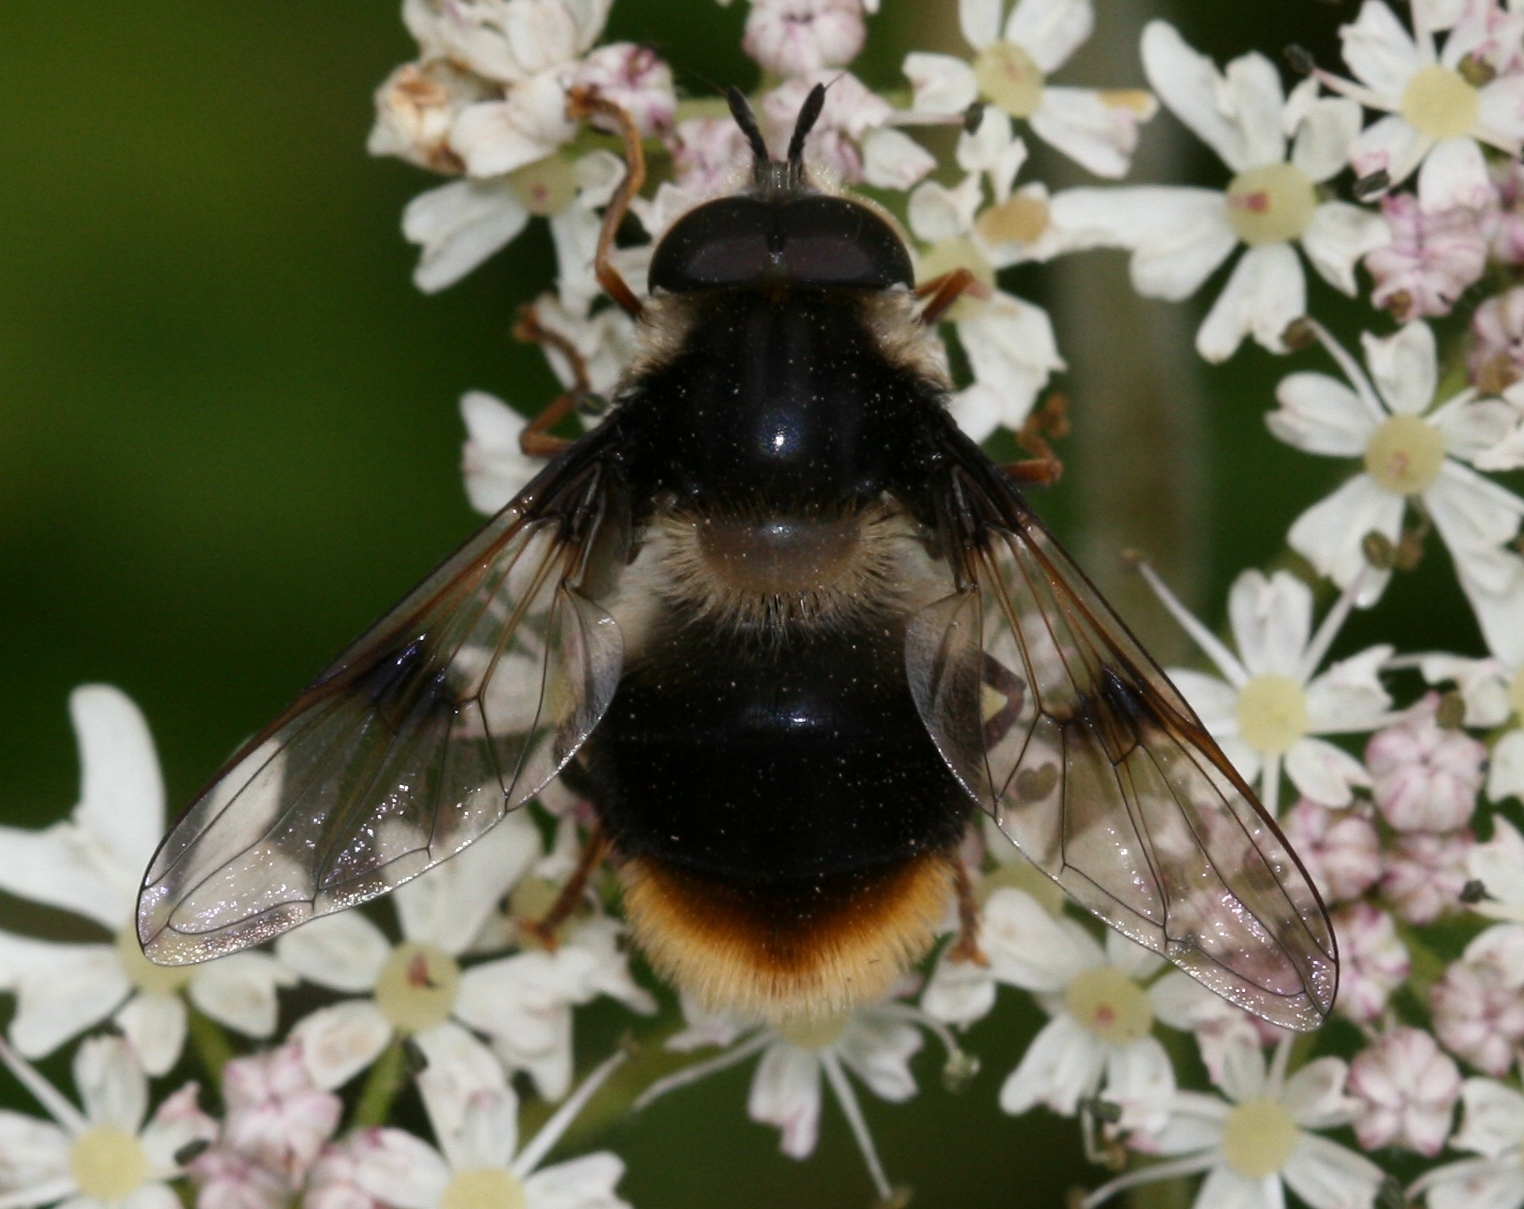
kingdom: Animalia
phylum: Arthropoda
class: Insecta
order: Diptera
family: Syrphidae
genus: Eriozona
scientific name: Eriozona syrphoides
